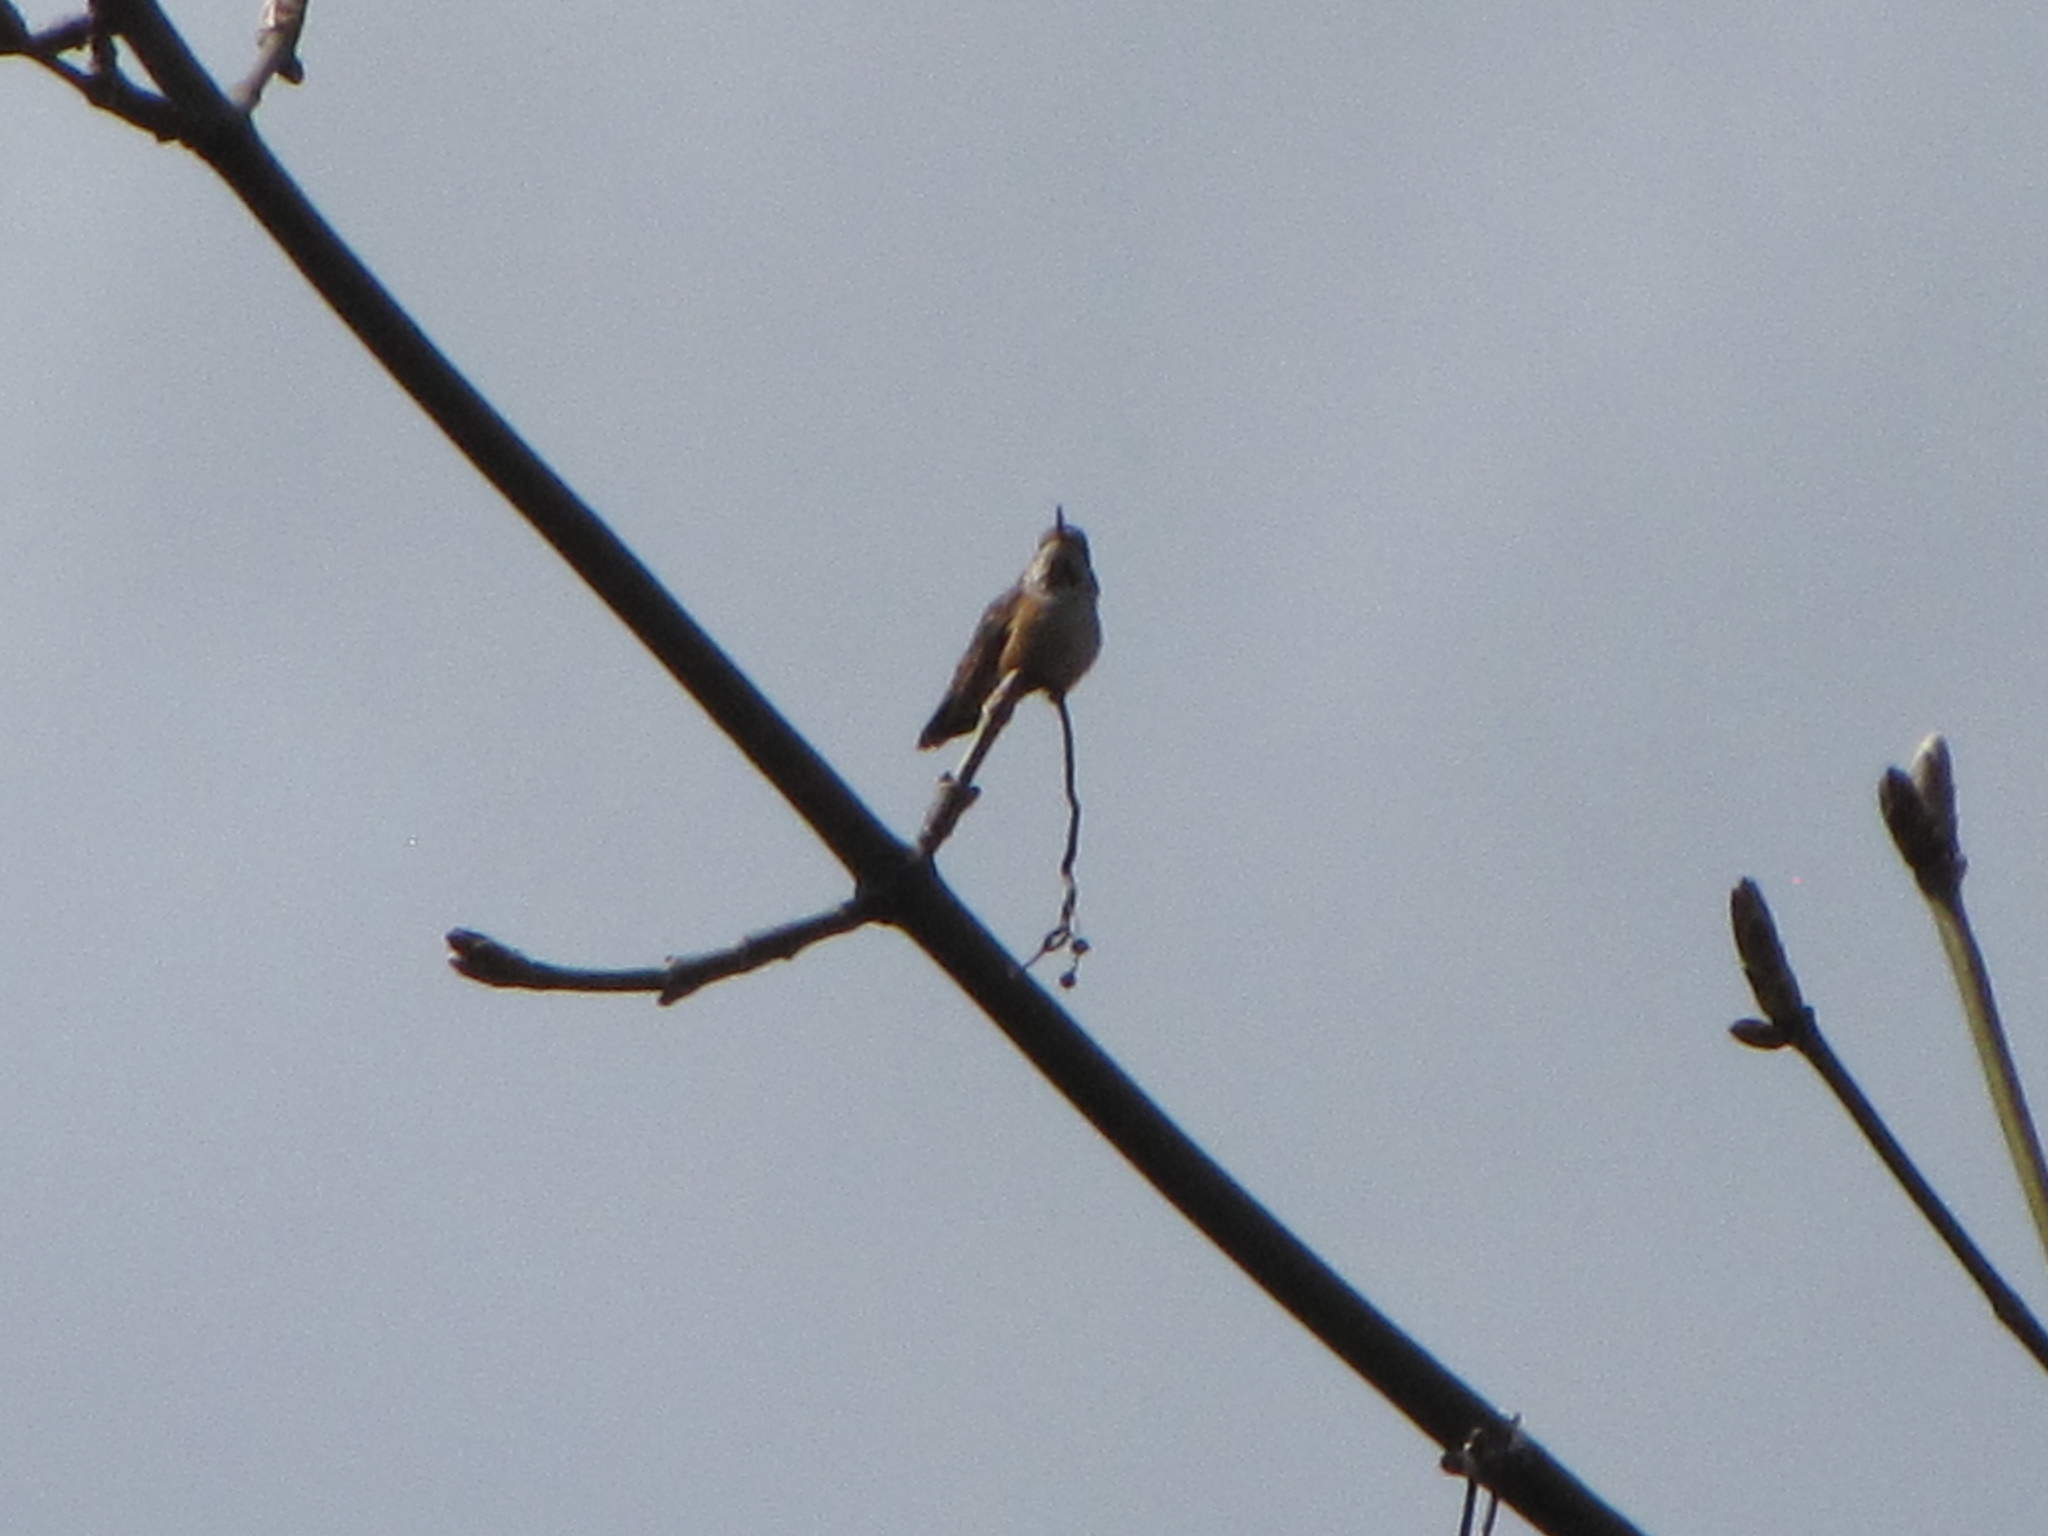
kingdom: Animalia
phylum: Chordata
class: Aves
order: Apodiformes
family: Trochilidae
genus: Selasphorus
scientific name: Selasphorus rufus
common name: Rufous hummingbird
